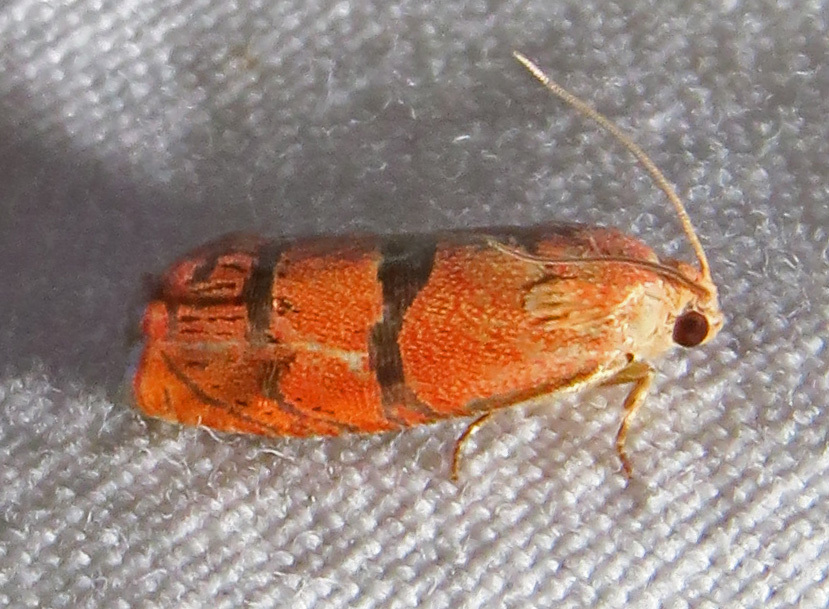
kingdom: Animalia
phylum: Arthropoda
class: Insecta
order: Lepidoptera
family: Tortricidae
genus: Cydia
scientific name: Cydia latiferreana
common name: Filbertworm moth
